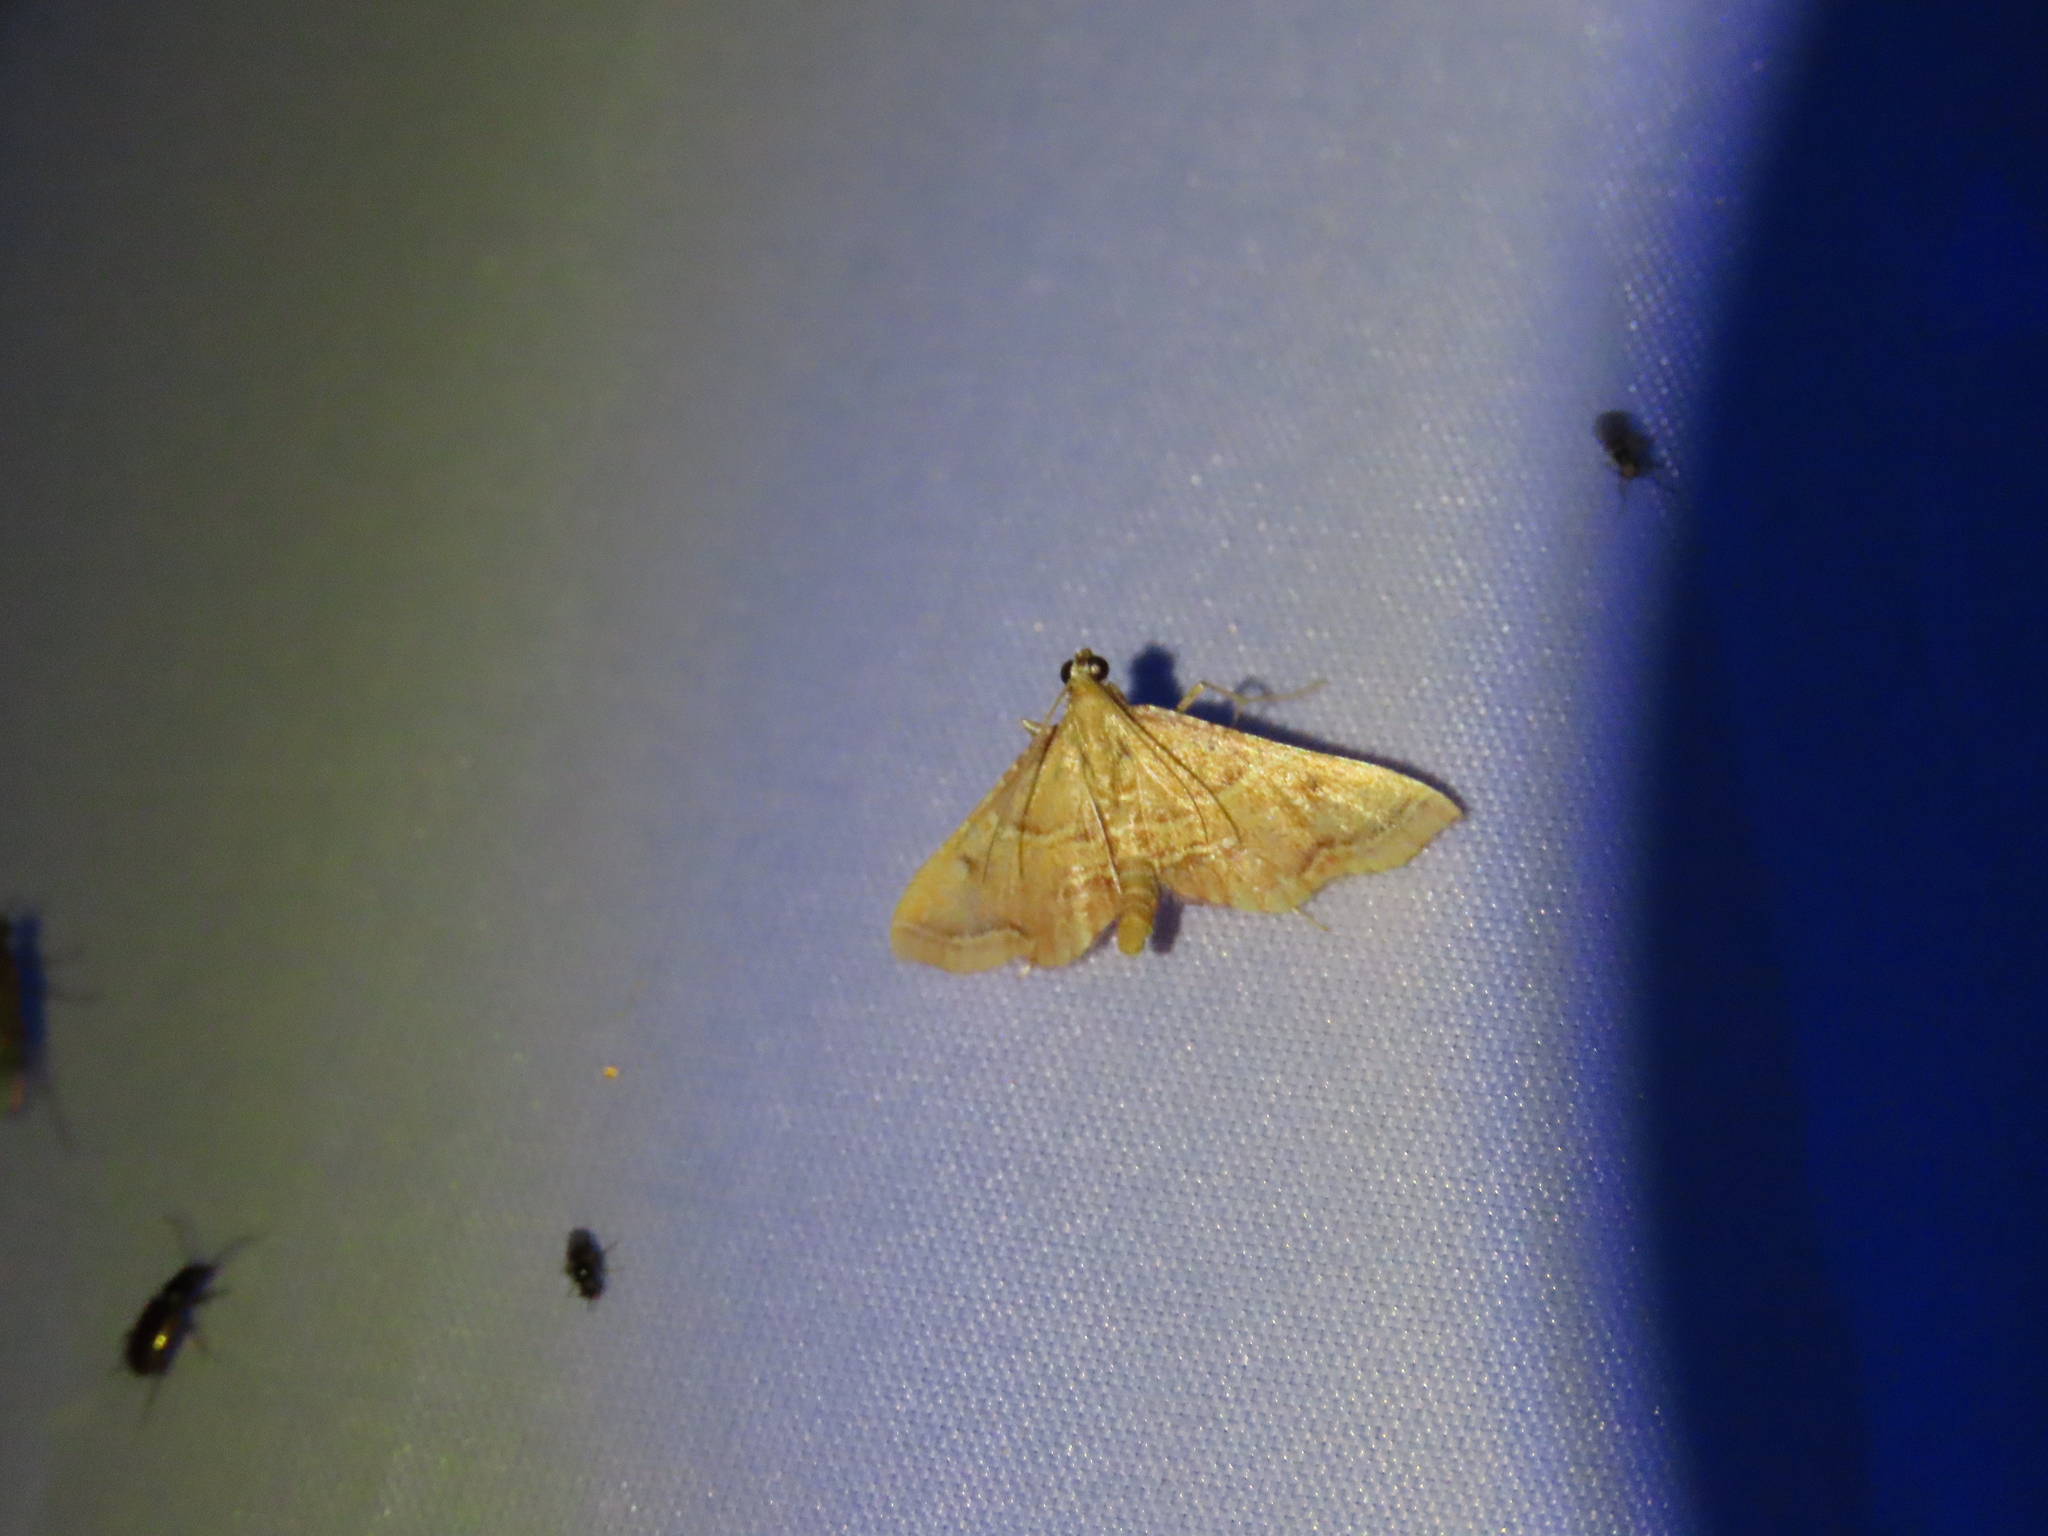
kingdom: Animalia
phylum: Arthropoda
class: Insecta
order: Lepidoptera
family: Pyralidae
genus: Endotricha
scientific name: Endotricha flammealis
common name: Rosy tabby
